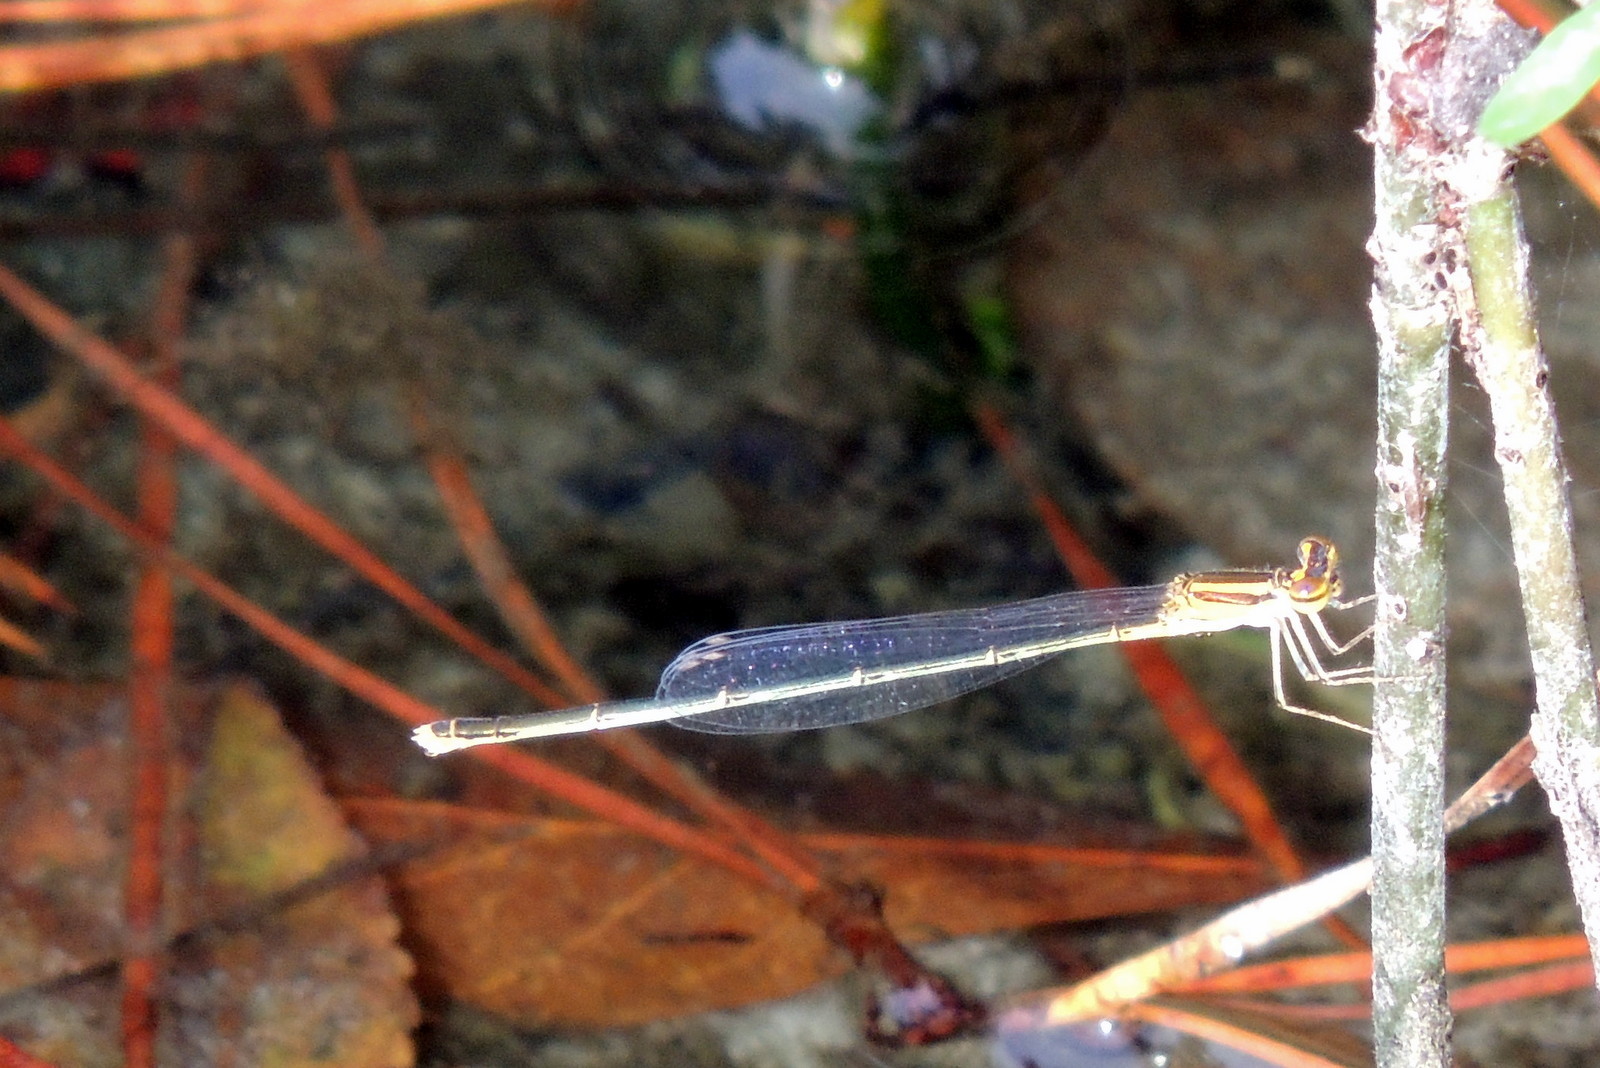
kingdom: Animalia
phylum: Arthropoda
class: Insecta
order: Odonata
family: Coenagrionidae
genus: Enallagma
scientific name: Enallagma pollutum
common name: Florida bluet
